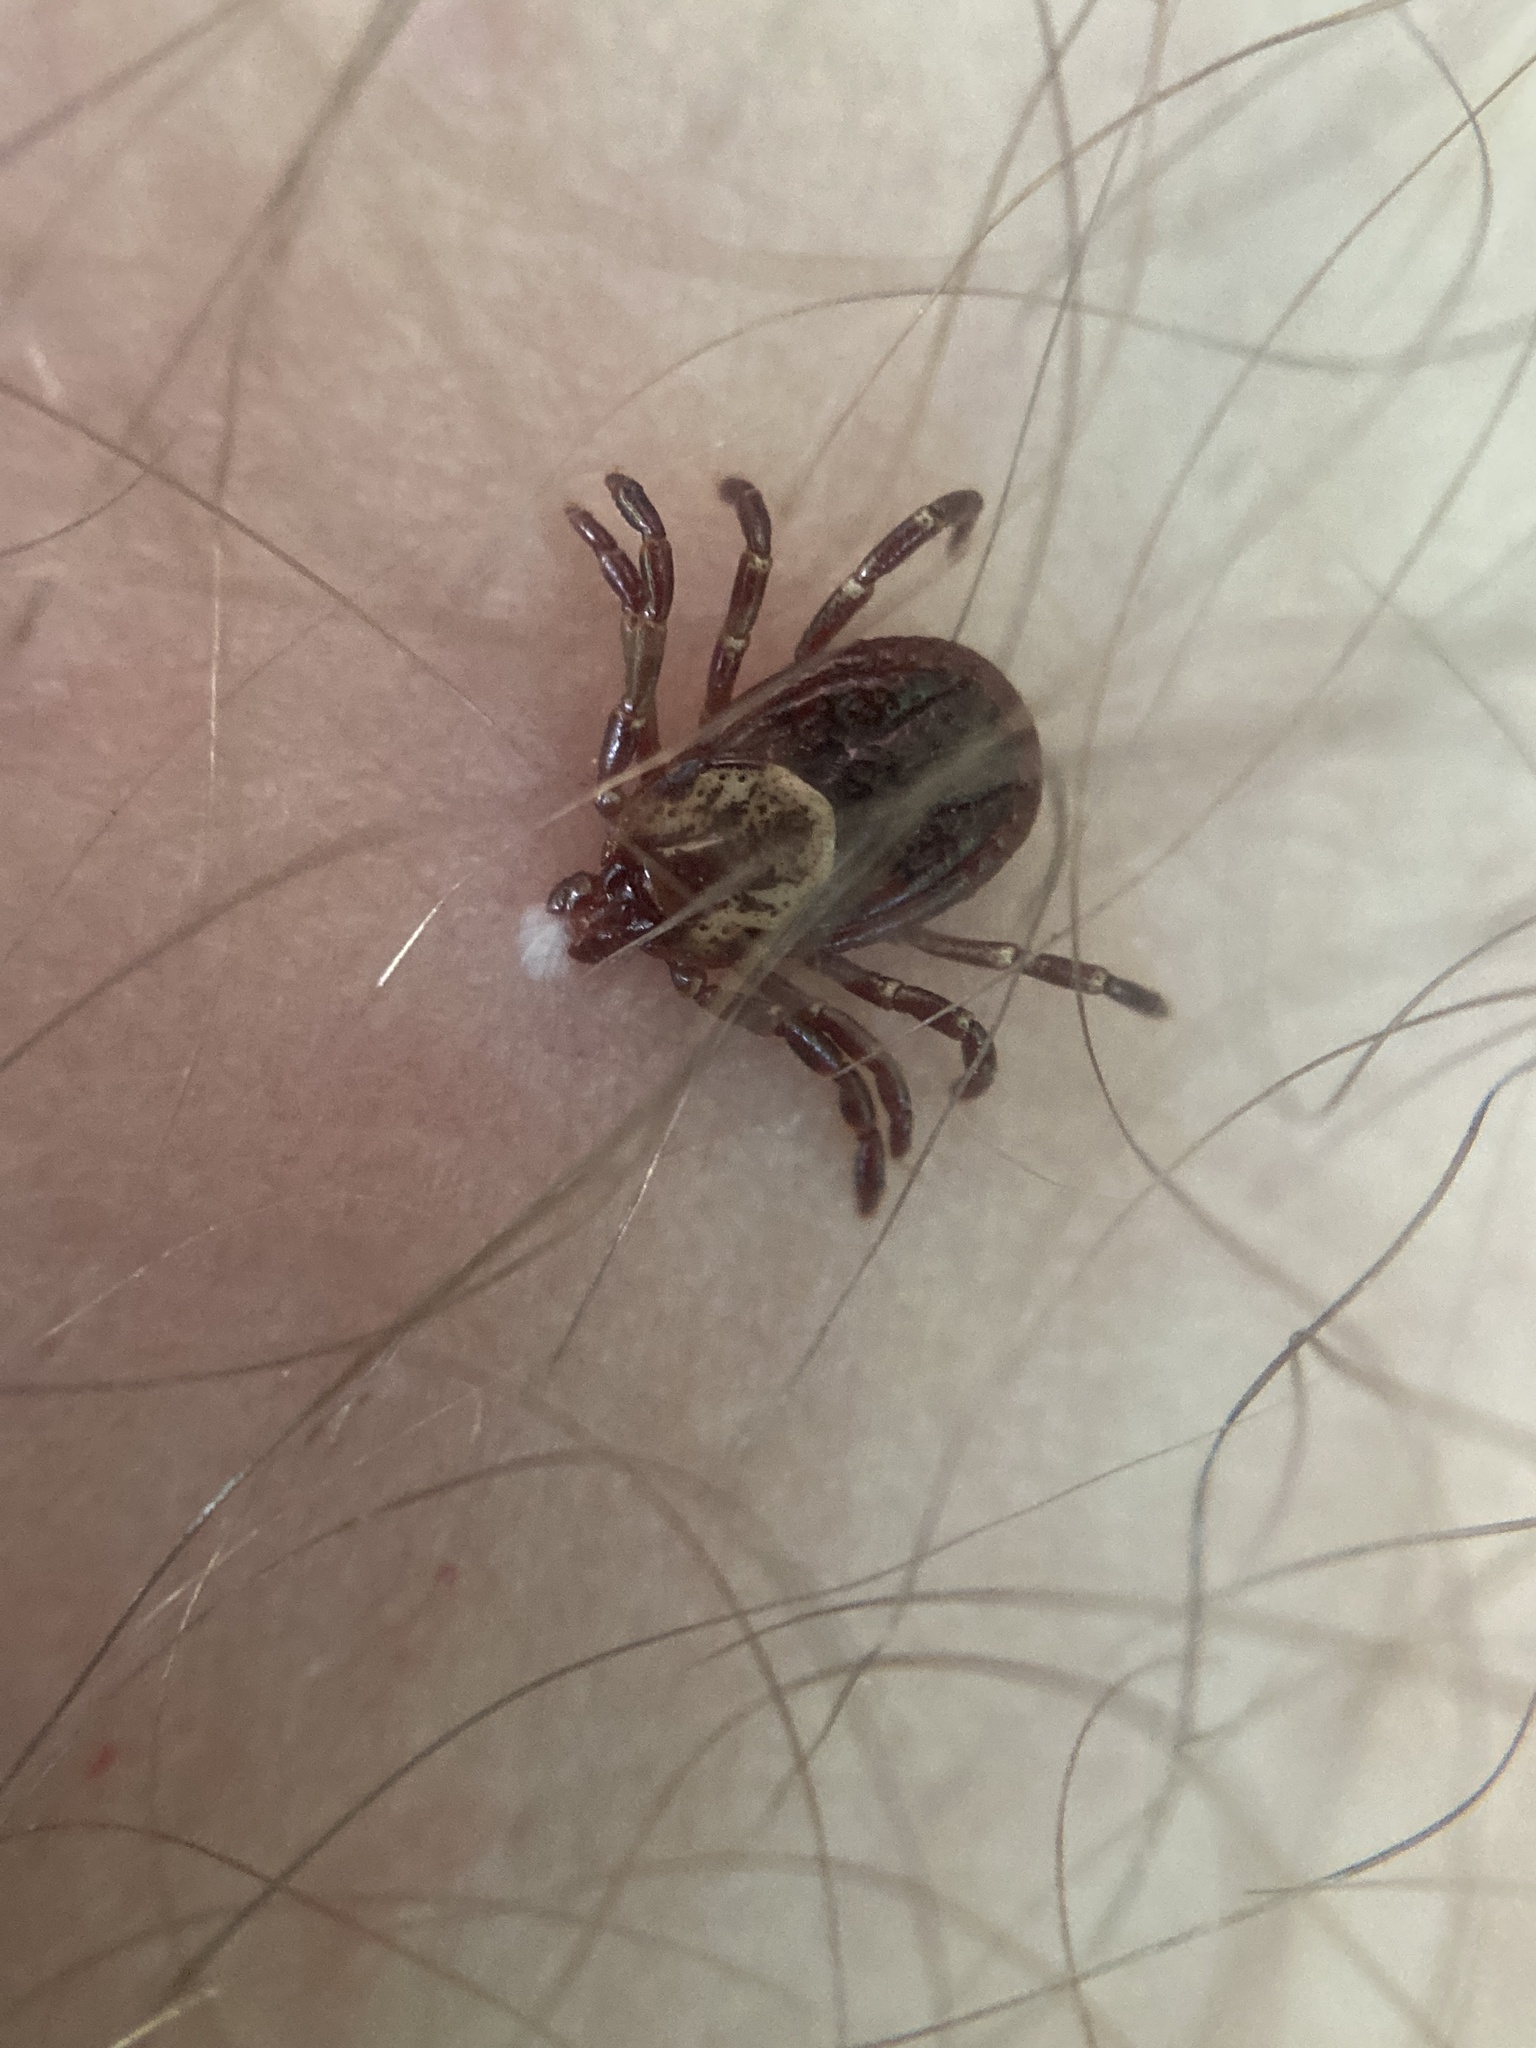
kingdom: Animalia
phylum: Arthropoda
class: Arachnida
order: Ixodida
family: Ixodidae
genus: Dermacentor
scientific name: Dermacentor variabilis
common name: American dog tick
